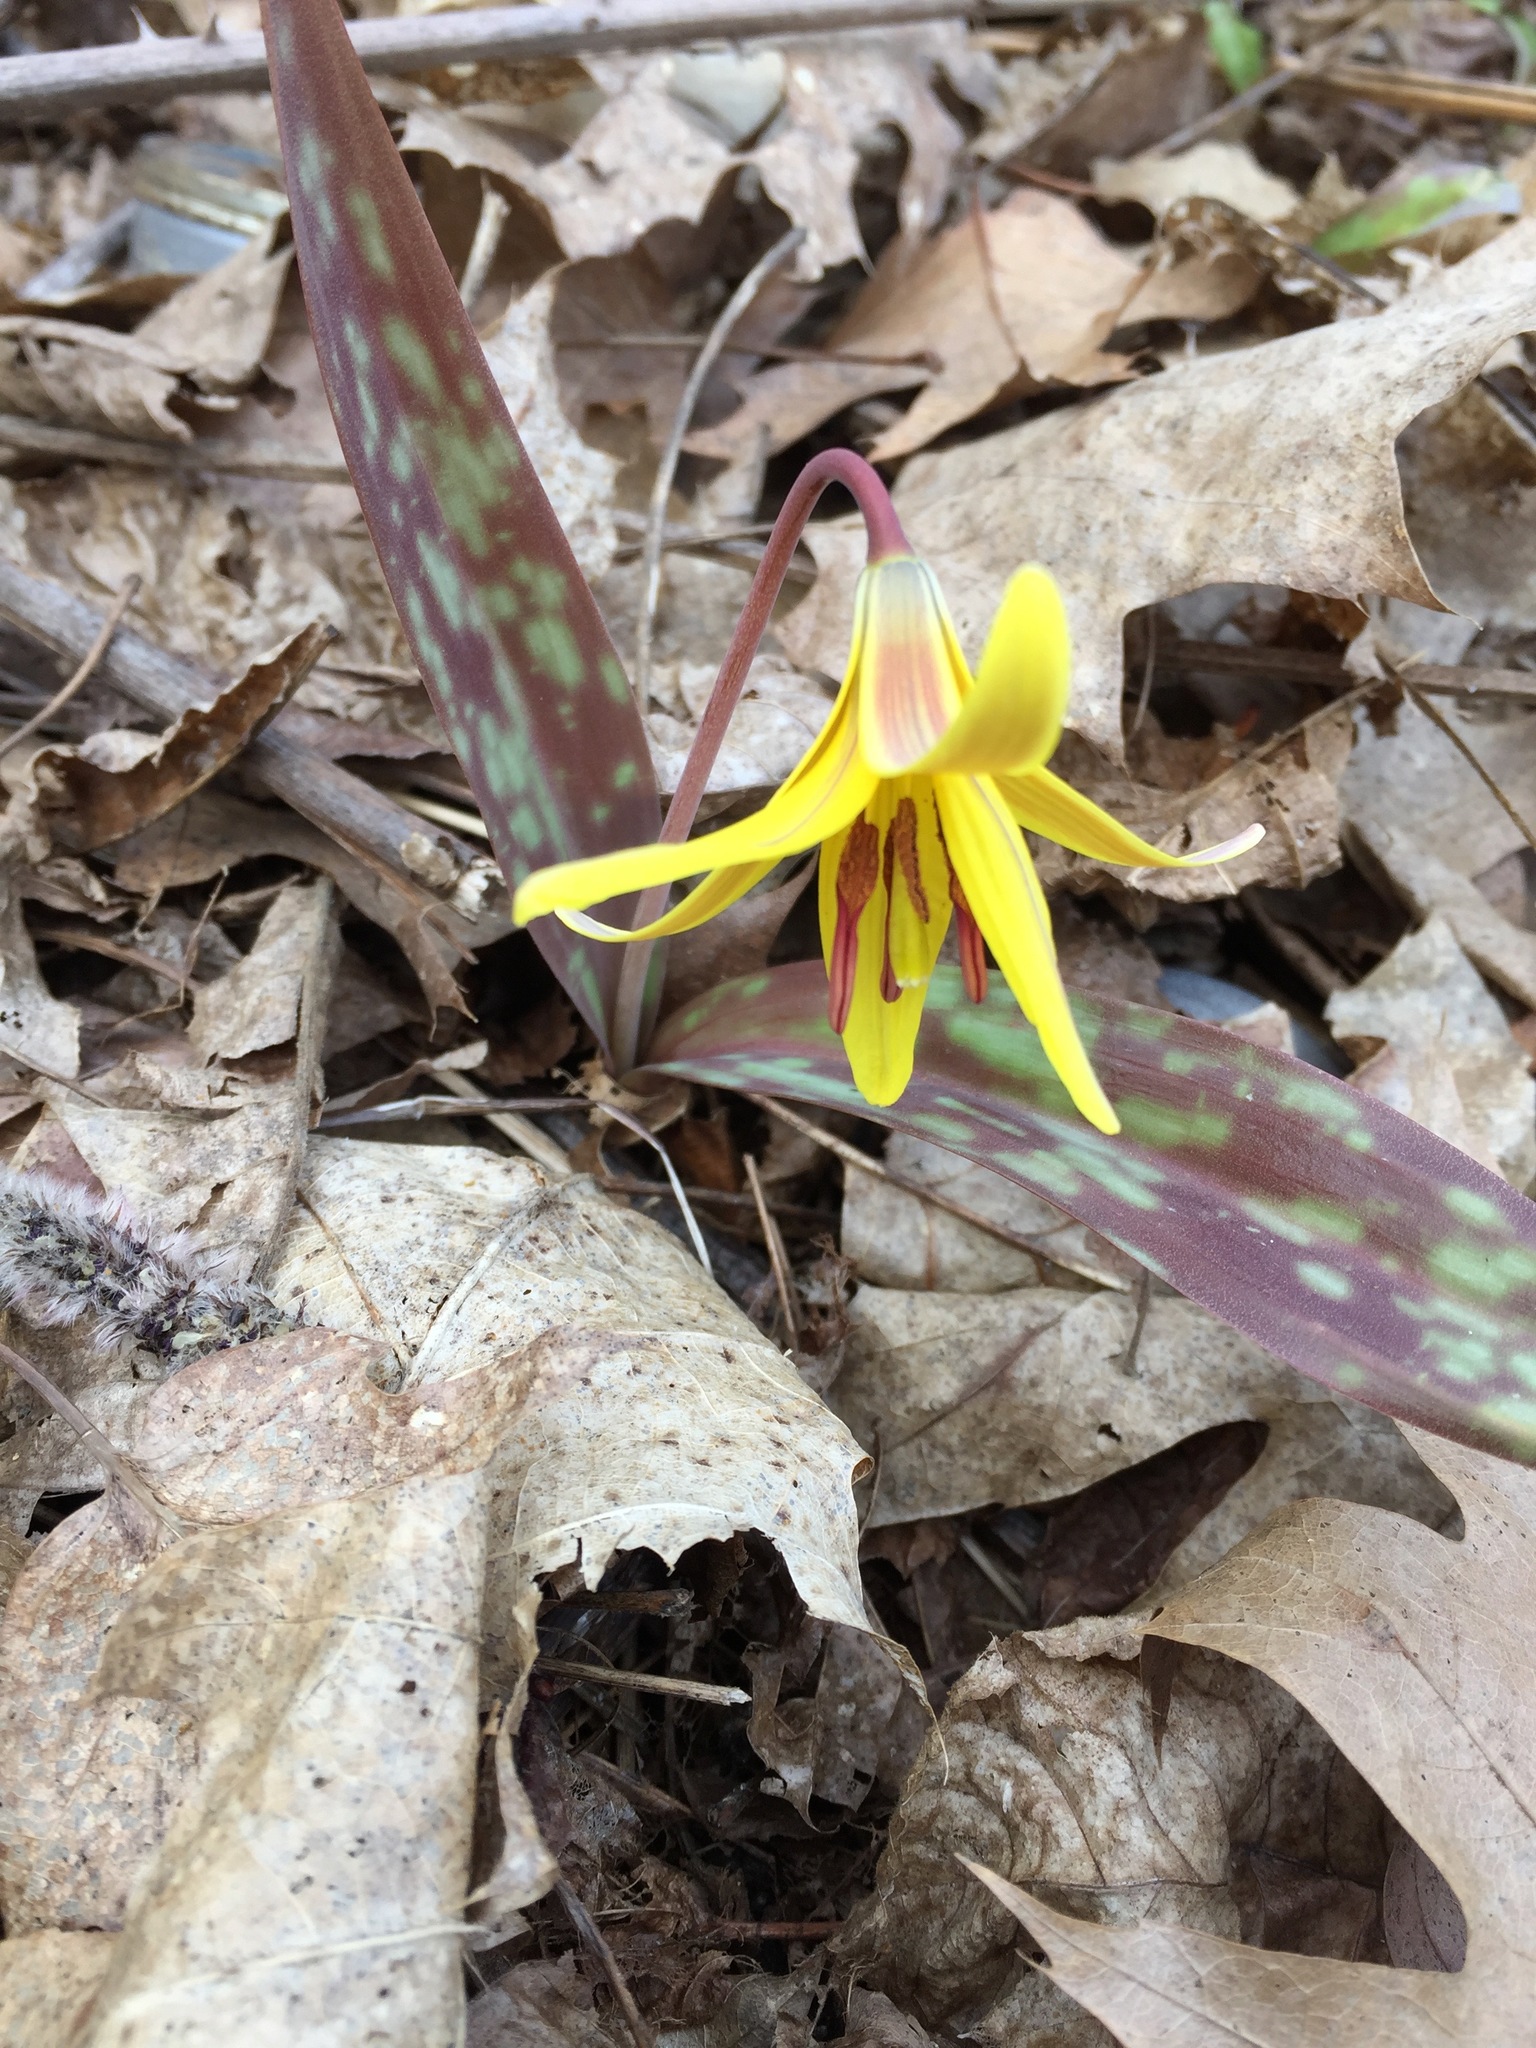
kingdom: Plantae
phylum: Tracheophyta
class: Liliopsida
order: Liliales
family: Liliaceae
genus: Erythronium
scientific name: Erythronium americanum
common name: Yellow adder's-tongue
